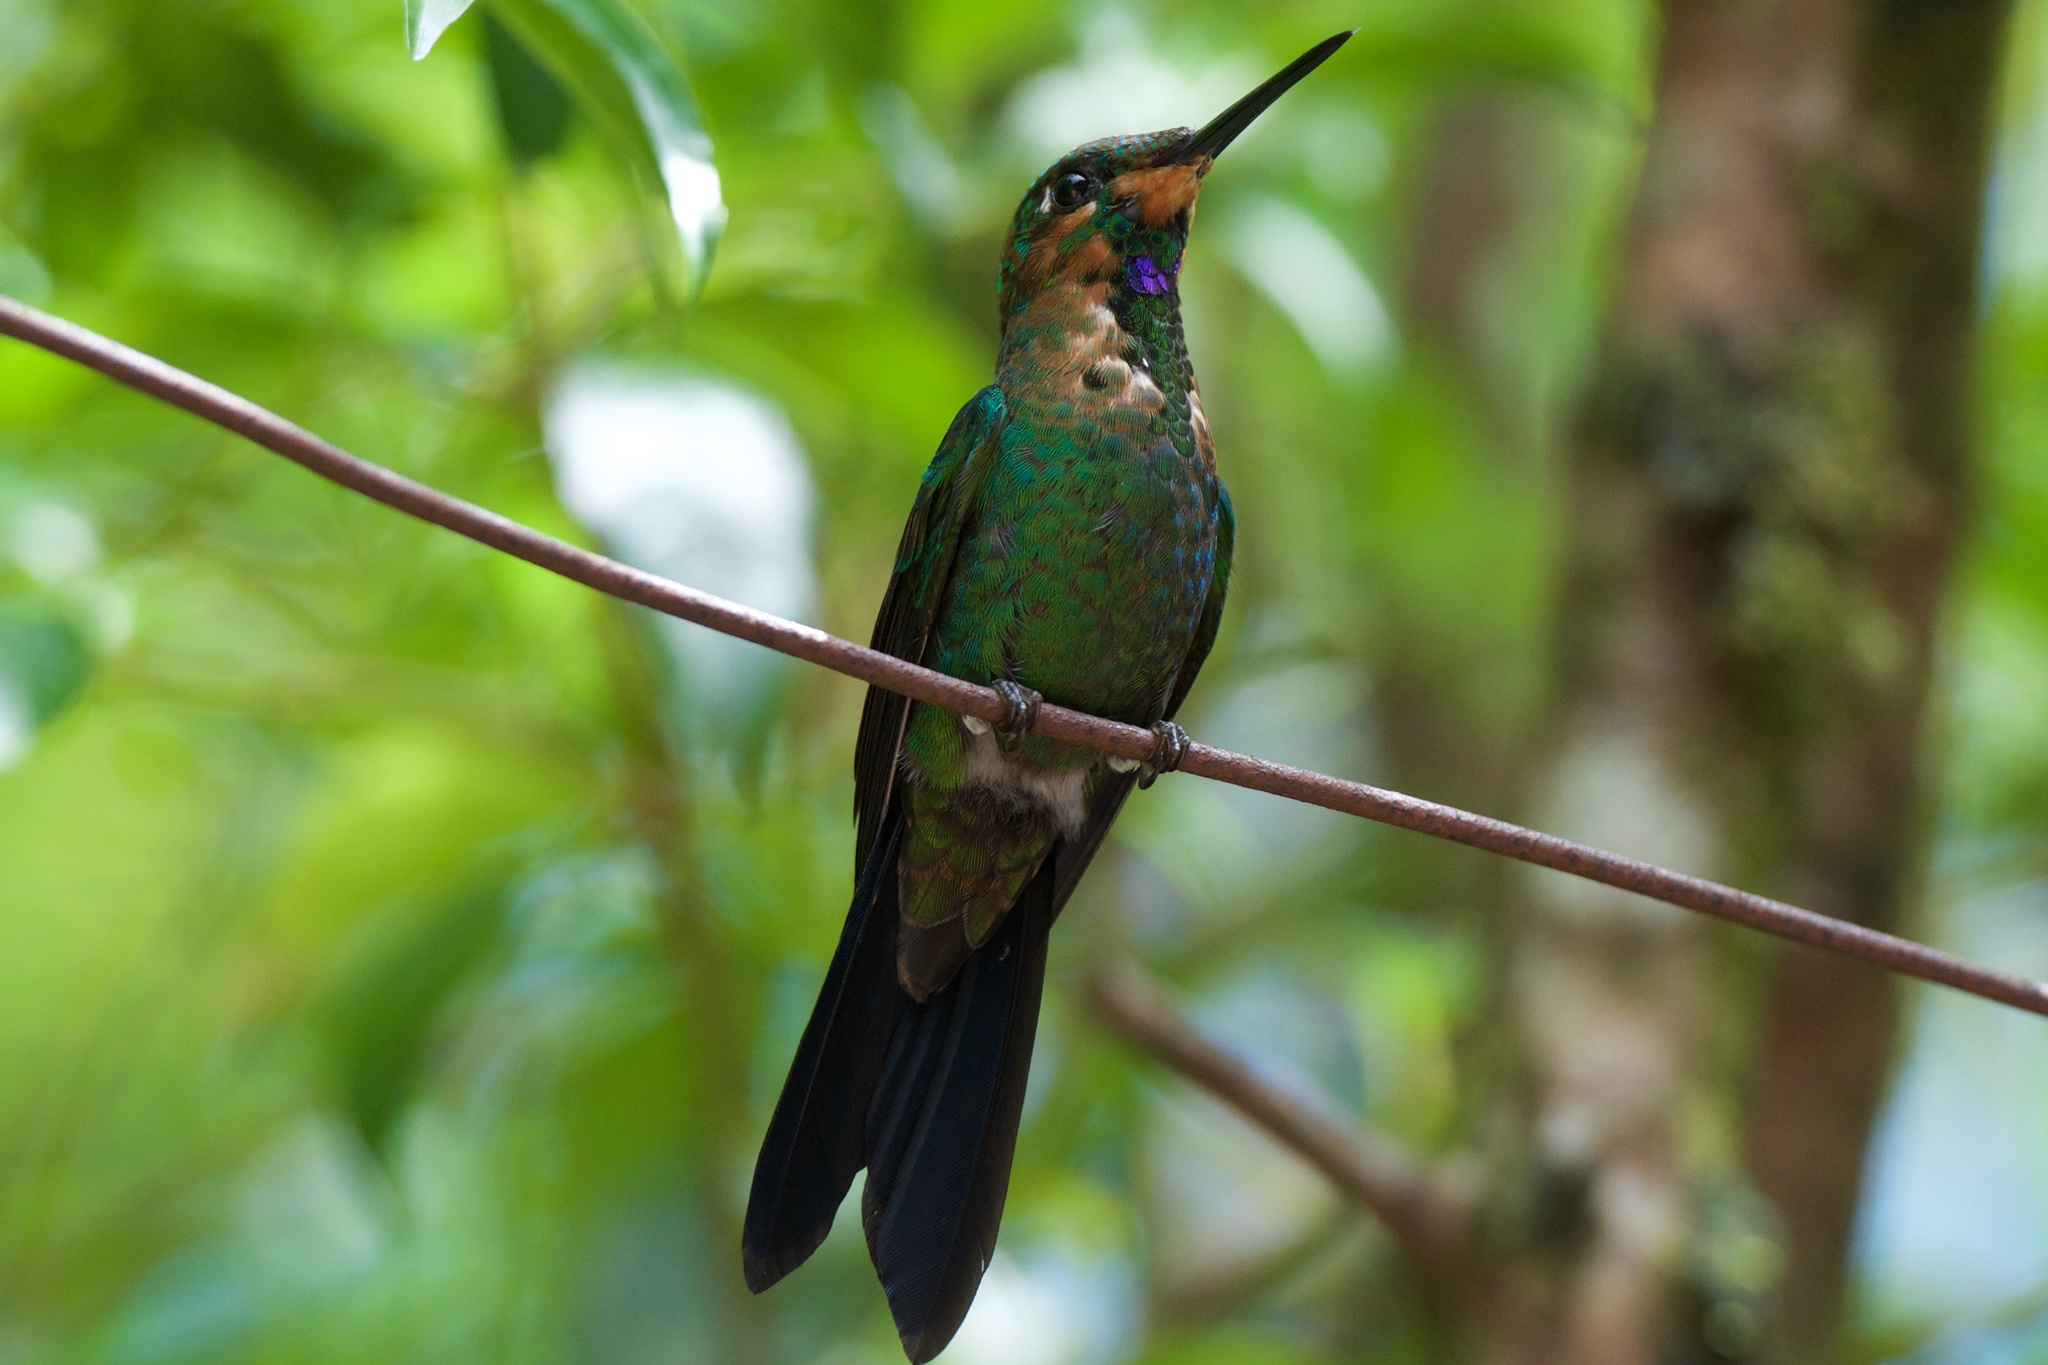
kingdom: Animalia
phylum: Chordata
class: Aves
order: Apodiformes
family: Trochilidae
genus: Heliodoxa
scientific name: Heliodoxa jacula
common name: Green-crowned brilliant
